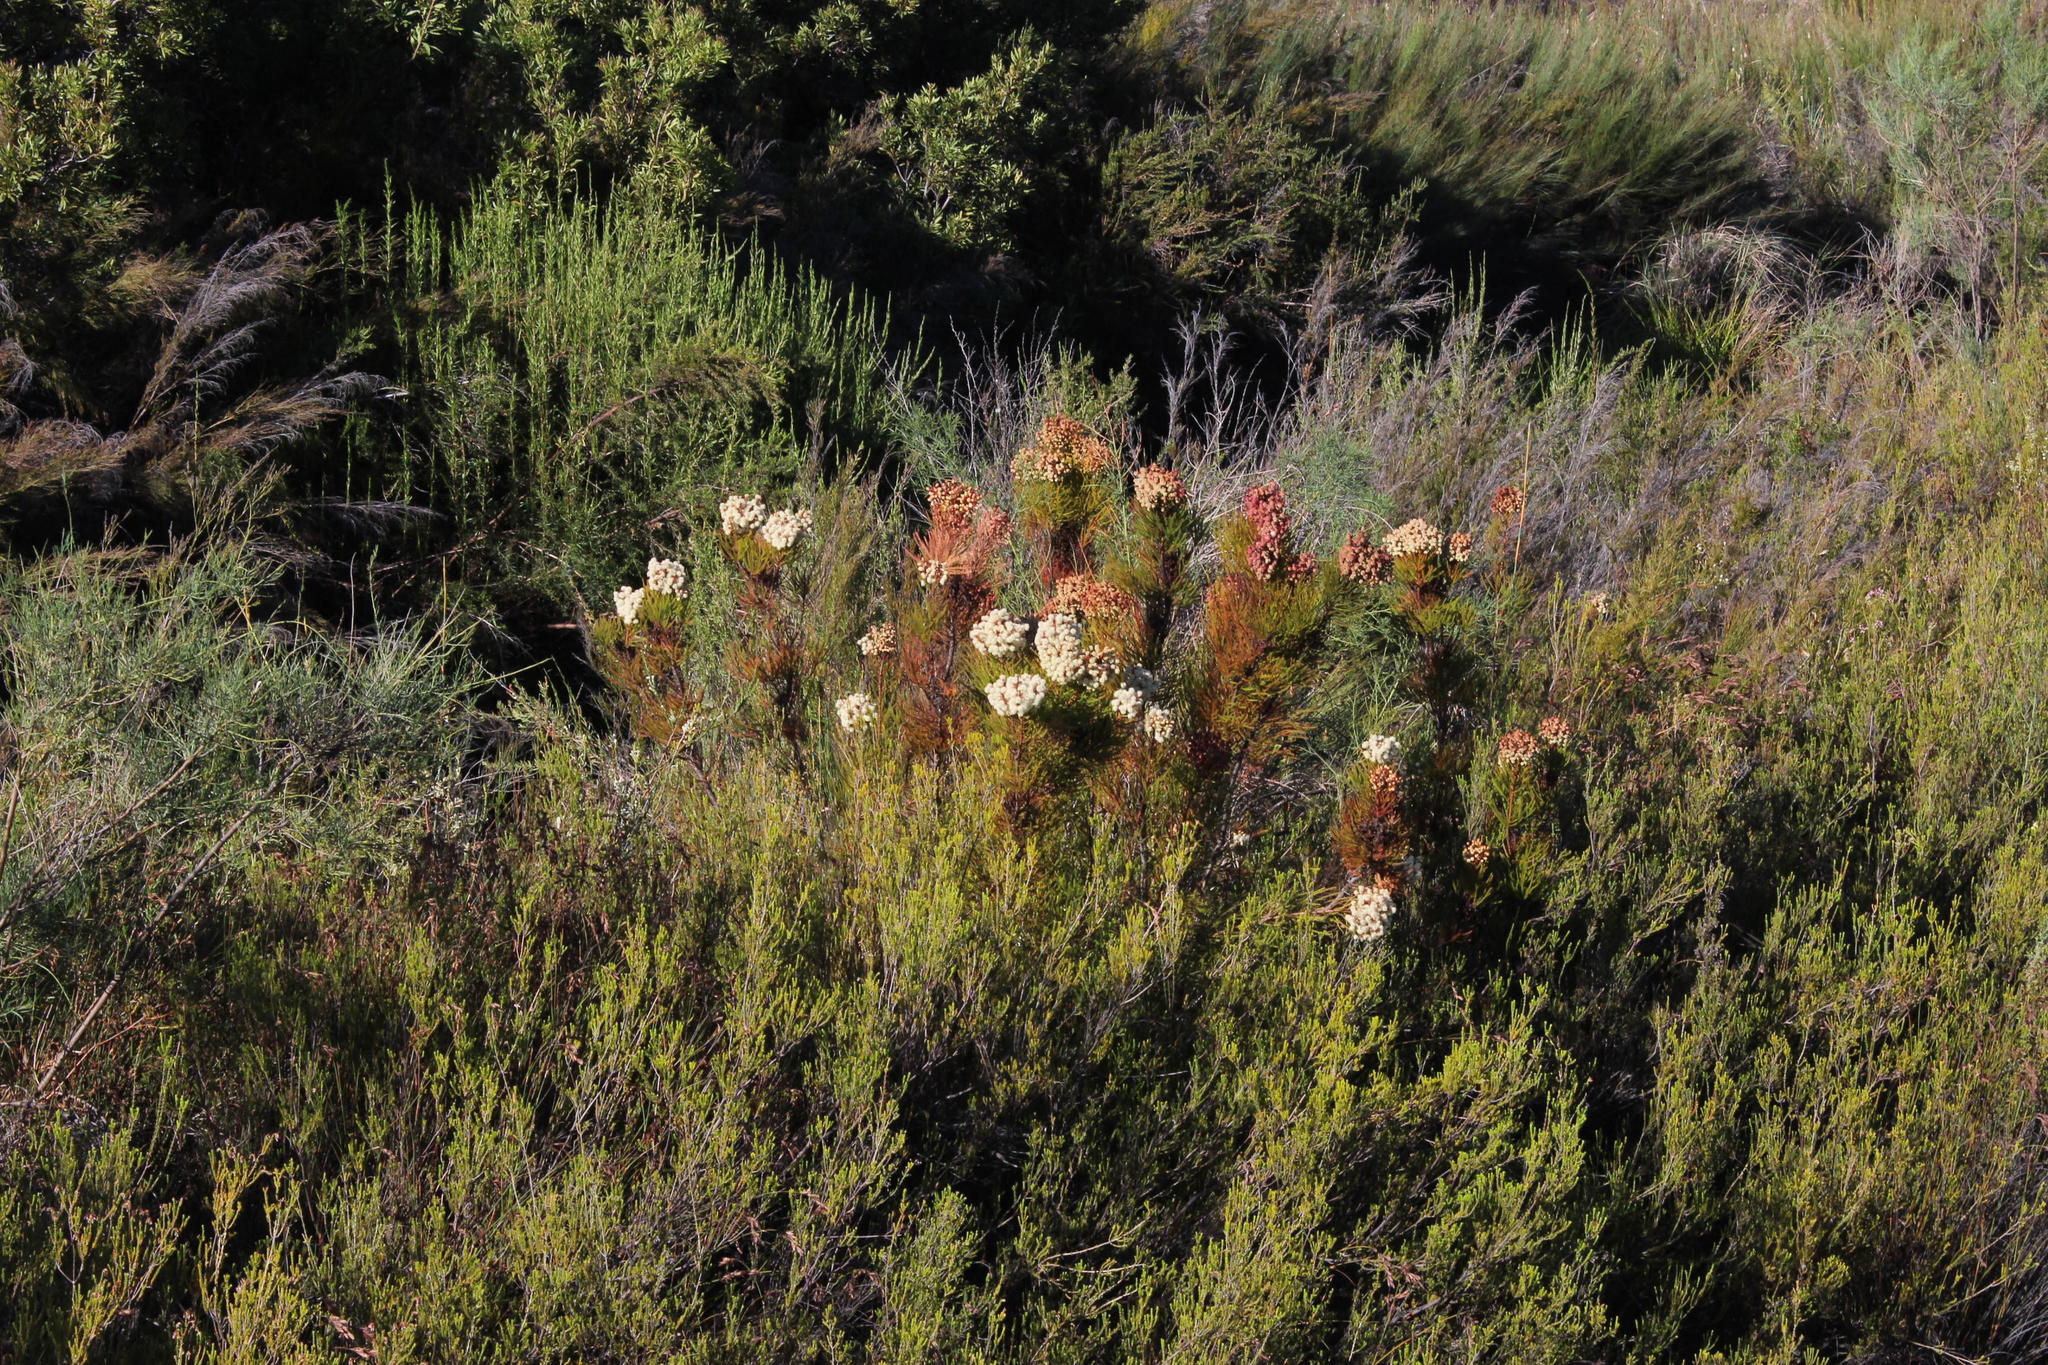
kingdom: Plantae
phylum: Tracheophyta
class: Magnoliopsida
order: Bruniales
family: Bruniaceae
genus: Berzelia
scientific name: Berzelia intermedia
